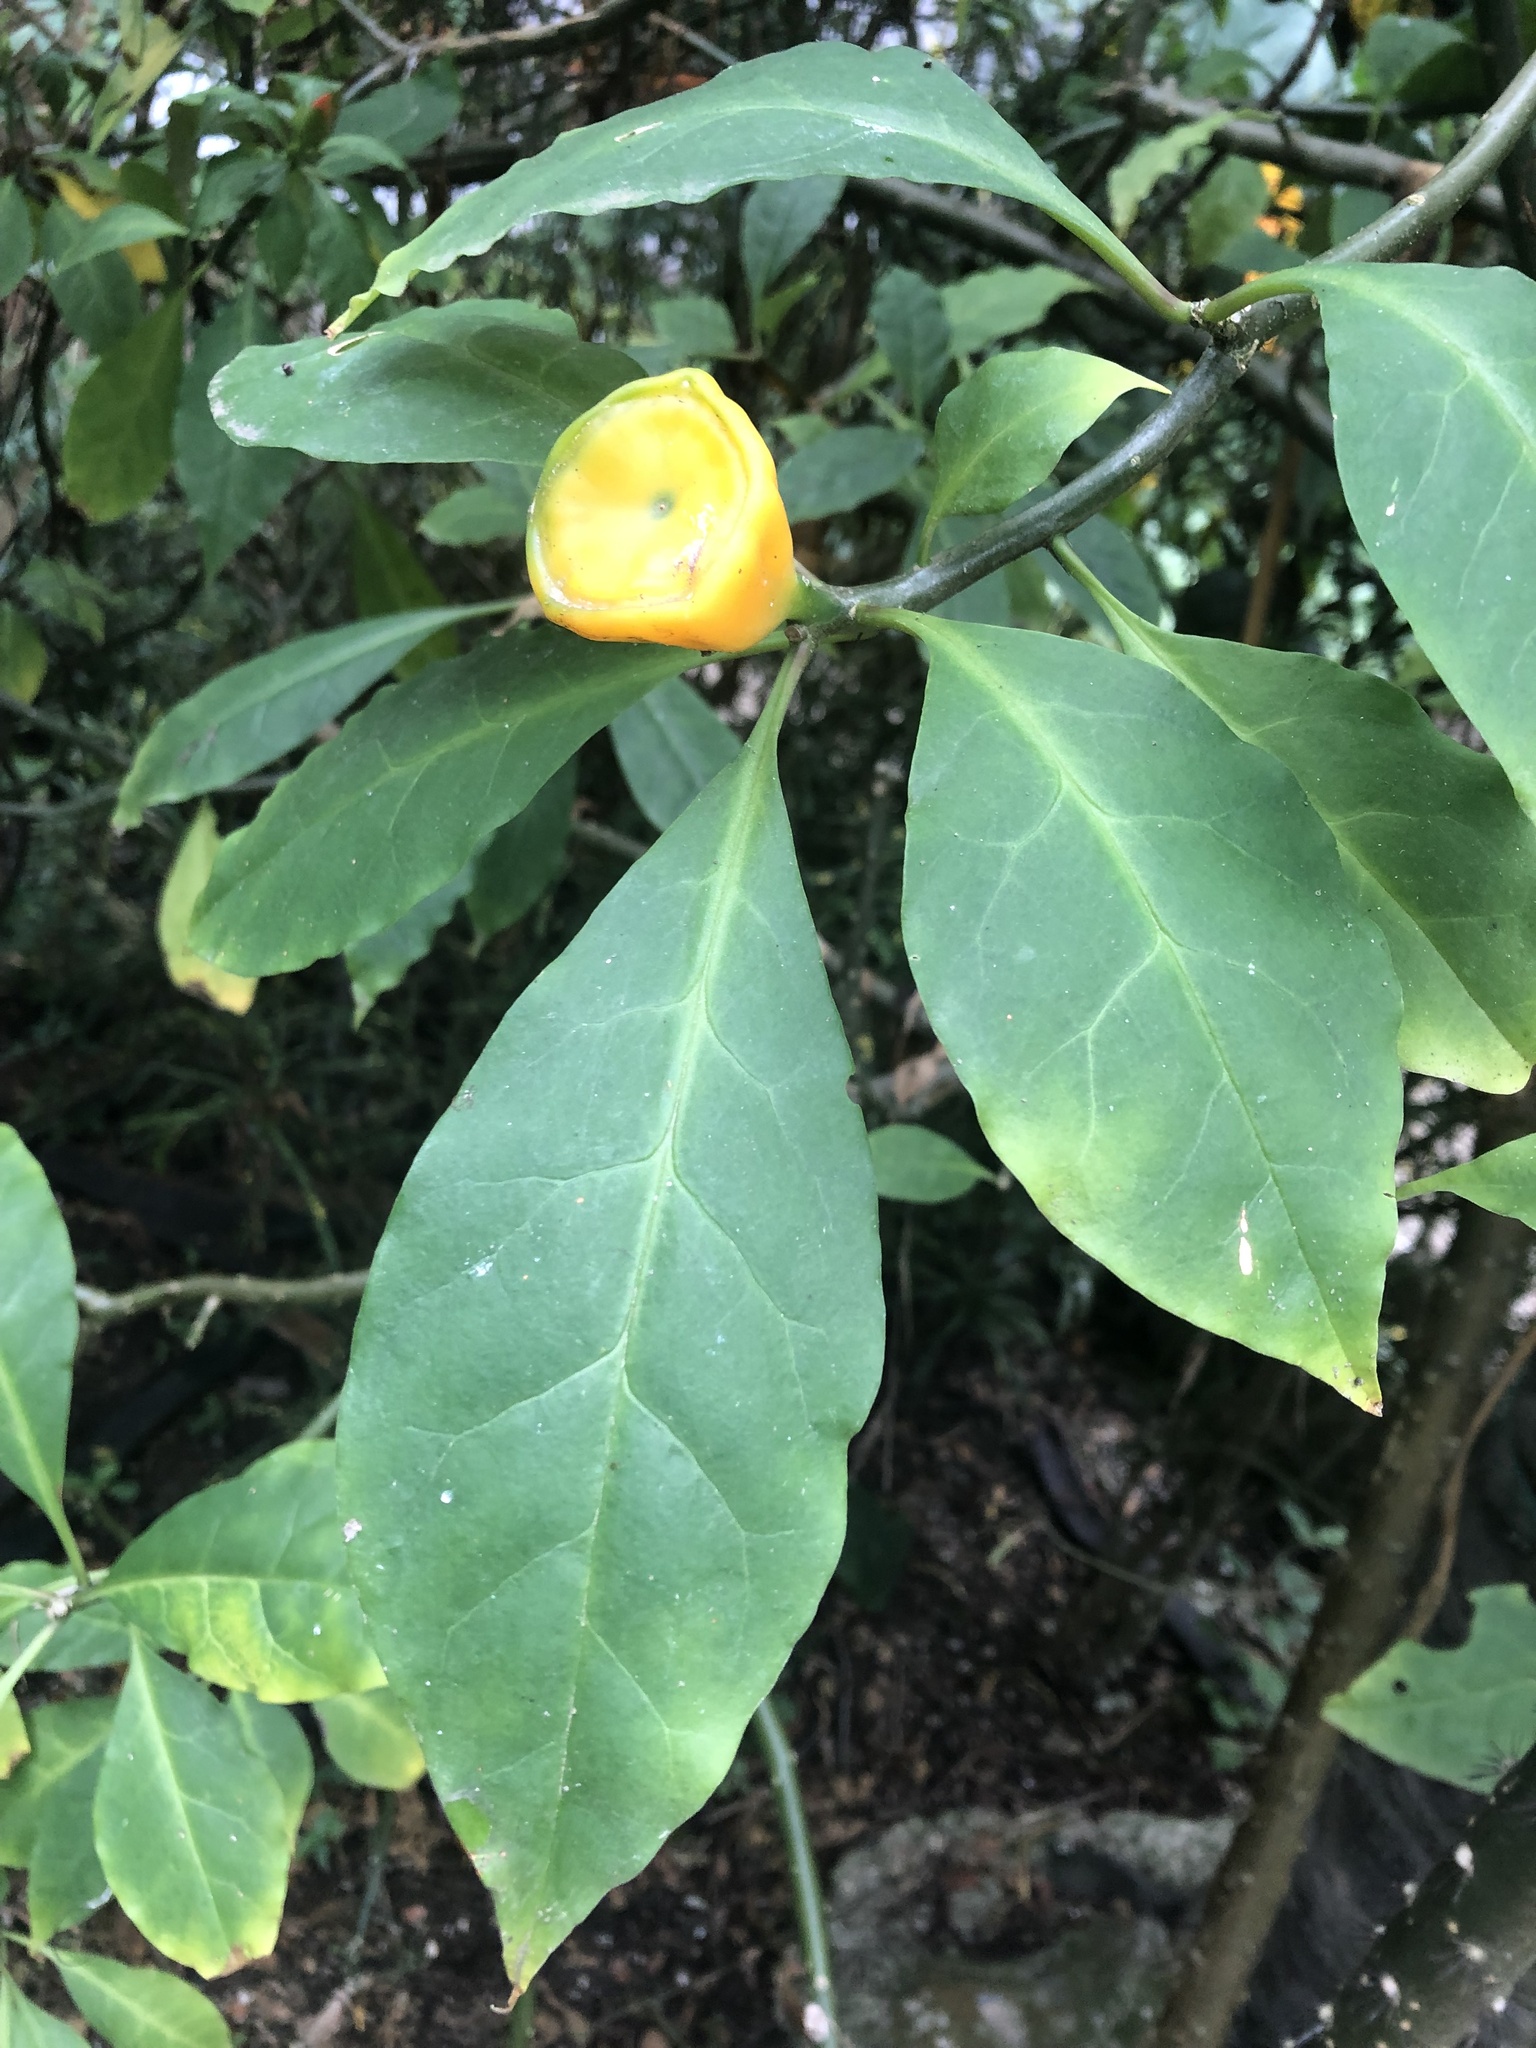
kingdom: Plantae
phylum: Tracheophyta
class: Magnoliopsida
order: Caryophyllales
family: Cactaceae
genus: Leuenbergeria
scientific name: Leuenbergeria bleo
